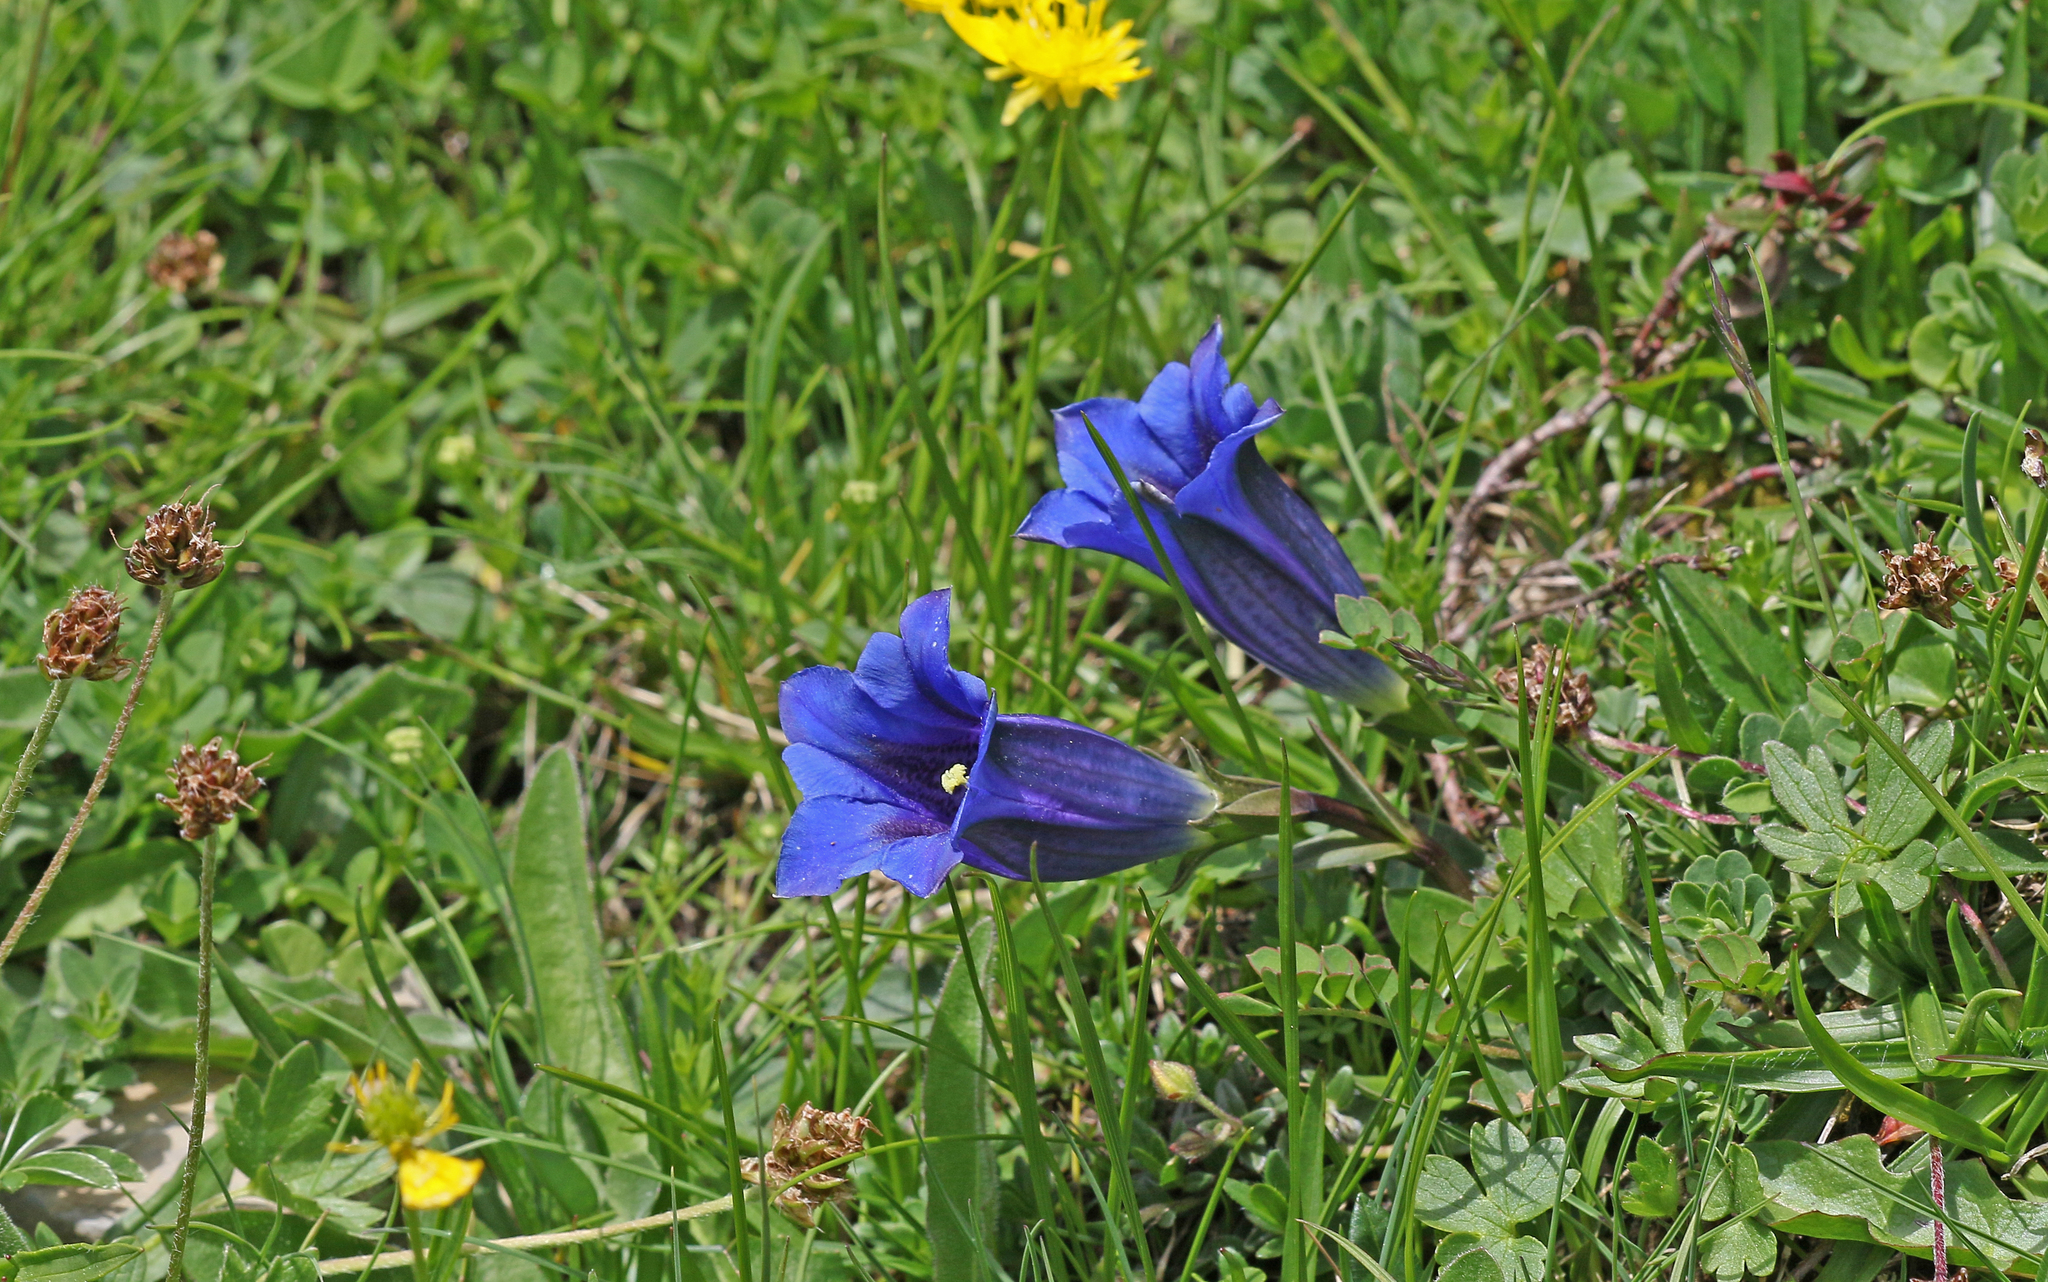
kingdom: Plantae
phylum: Tracheophyta
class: Magnoliopsida
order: Gentianales
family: Gentianaceae
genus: Gentiana
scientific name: Gentiana clusii
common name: Trumpet gentian
